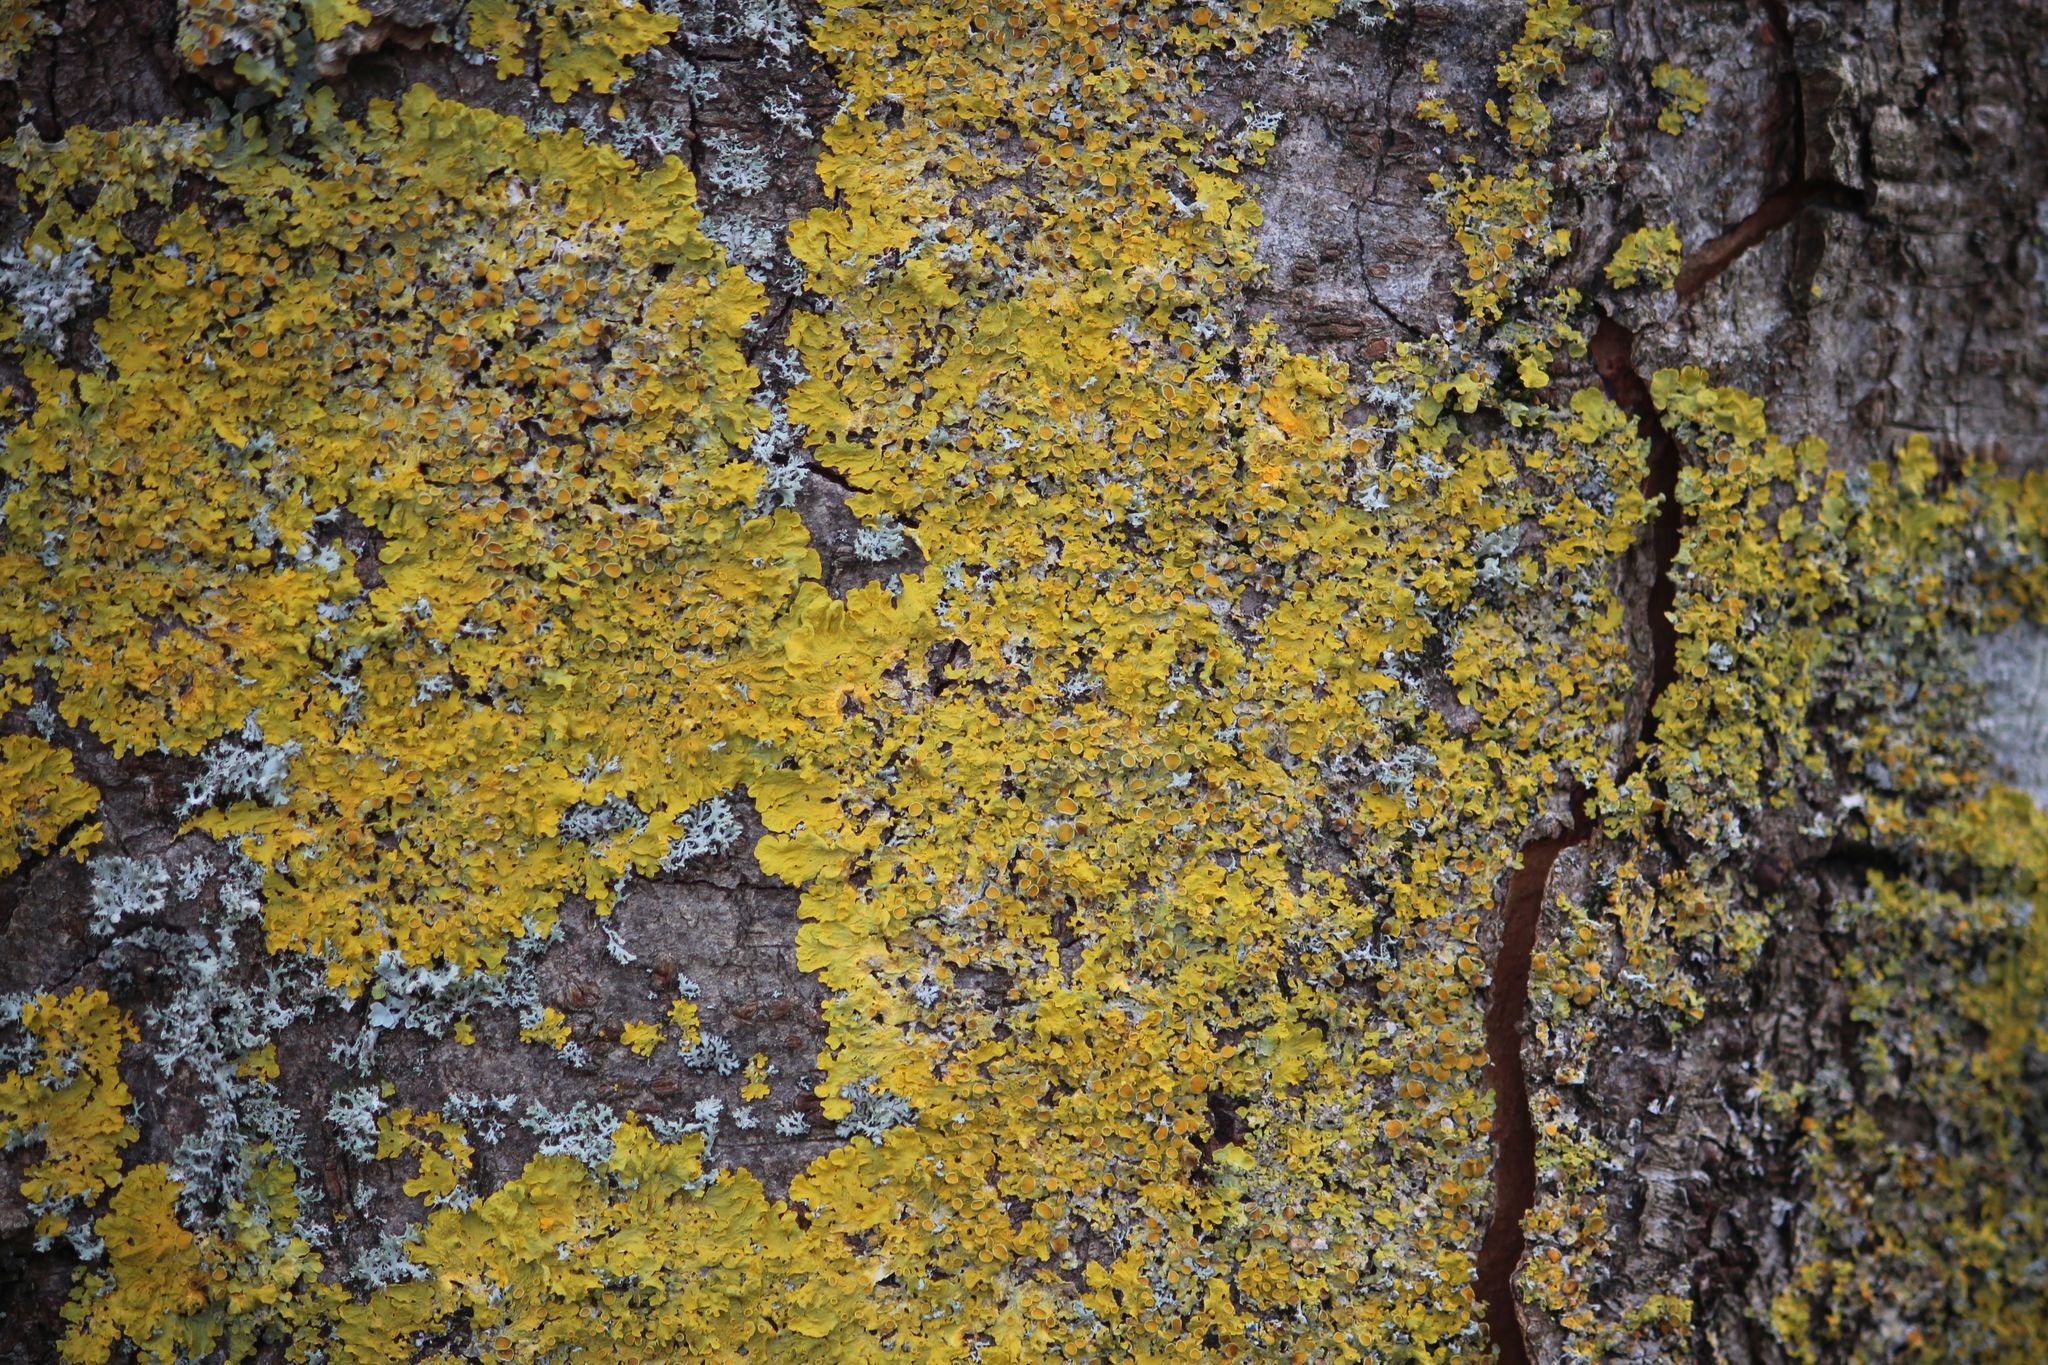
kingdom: Fungi
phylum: Ascomycota
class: Lecanoromycetes
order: Teloschistales
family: Teloschistaceae
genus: Xanthoria
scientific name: Xanthoria parietina
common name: Common orange lichen
